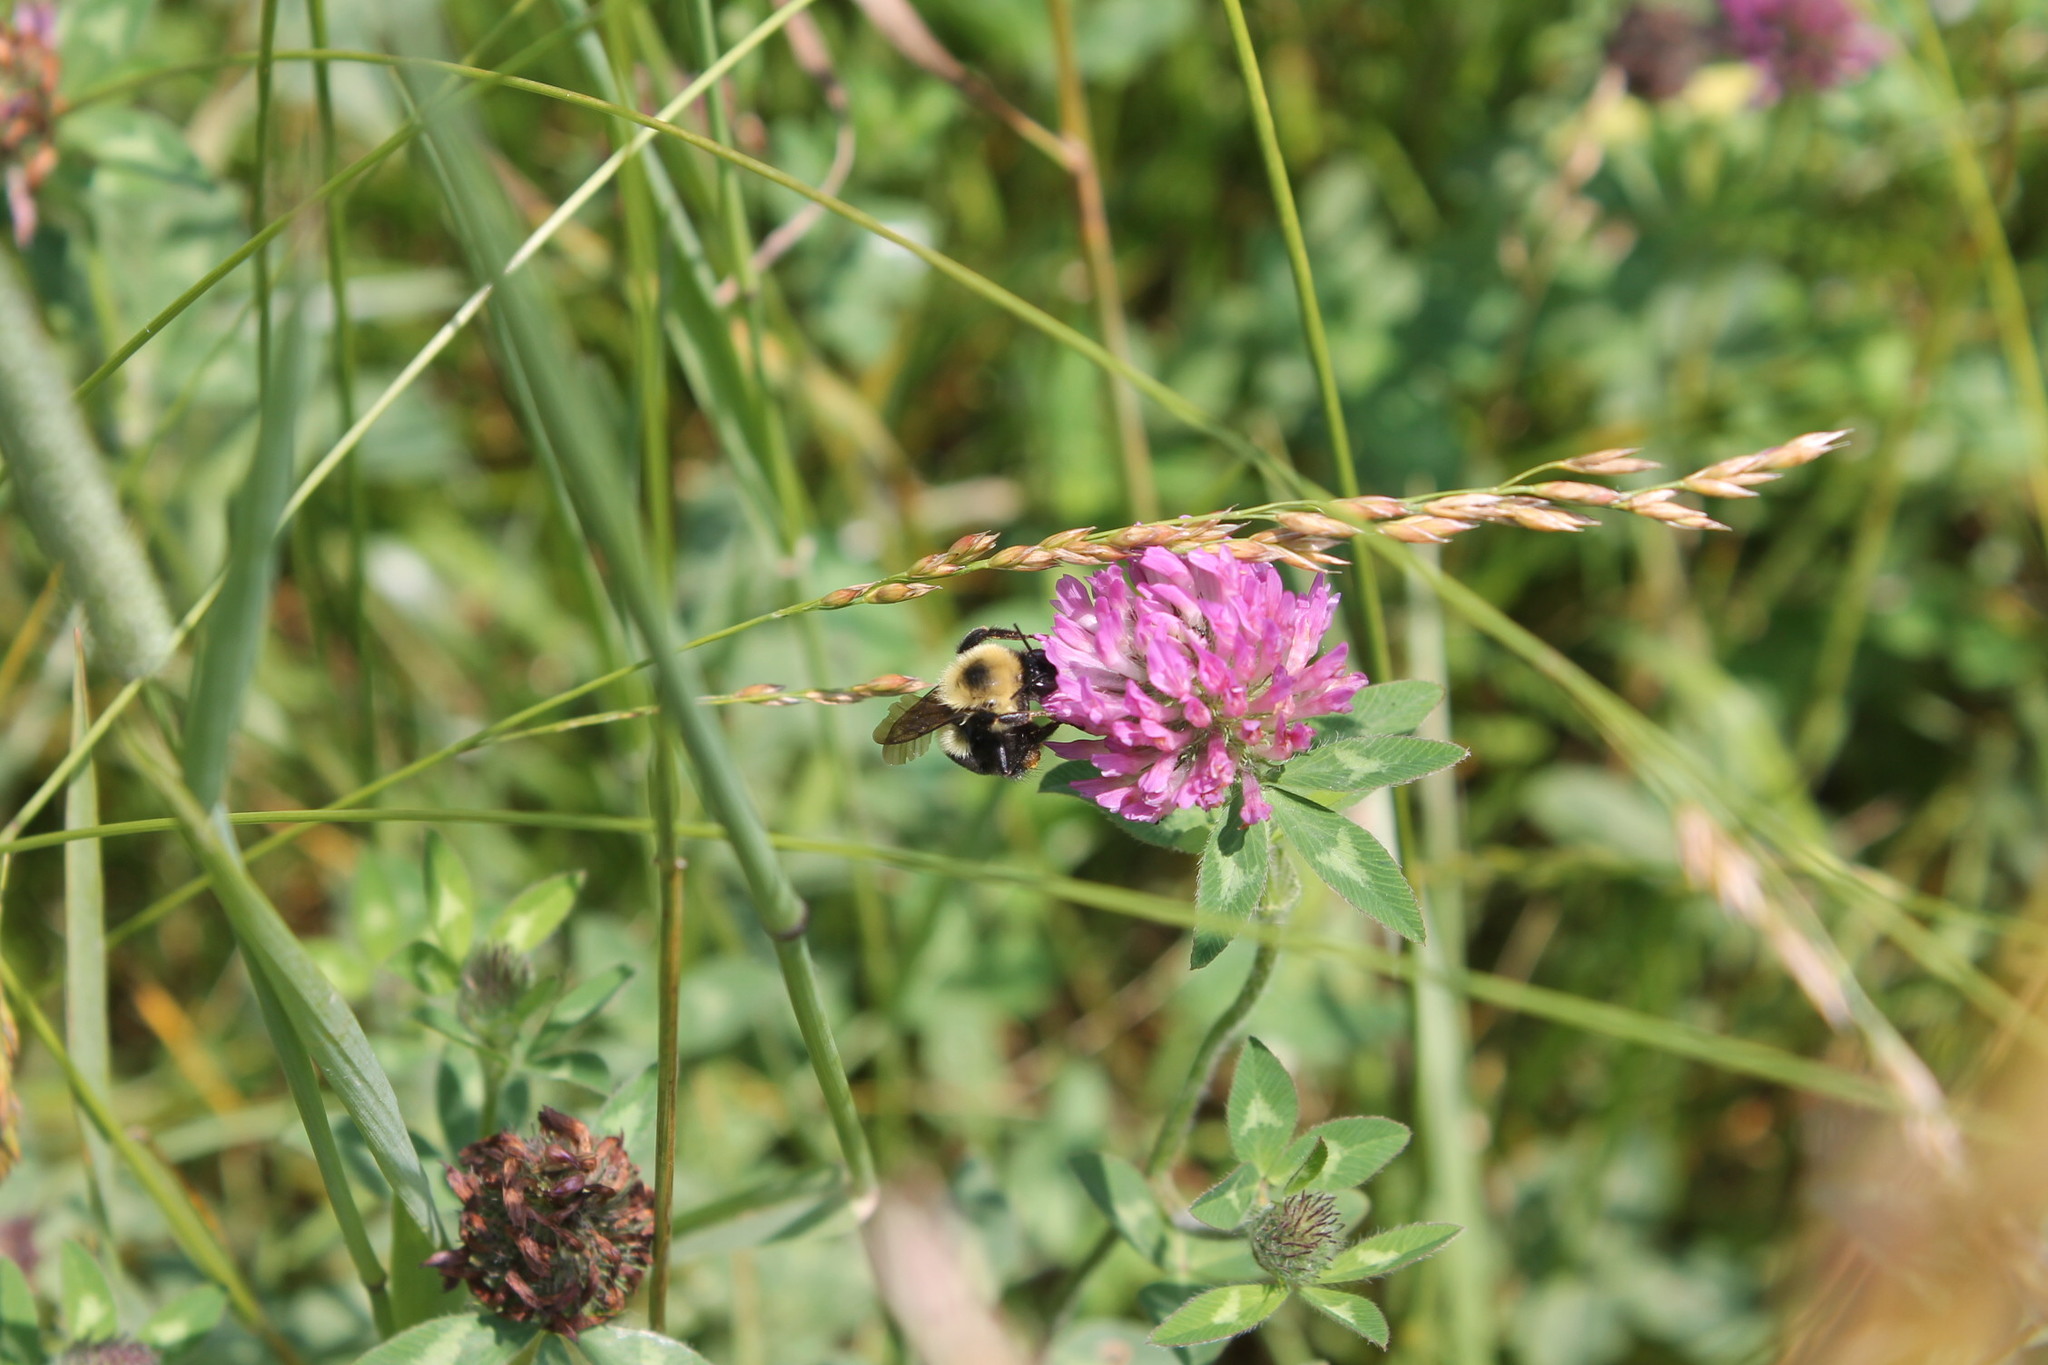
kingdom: Animalia
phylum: Arthropoda
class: Insecta
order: Hymenoptera
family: Apidae
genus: Bombus
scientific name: Bombus griseocollis
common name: Brown-belted bumble bee
